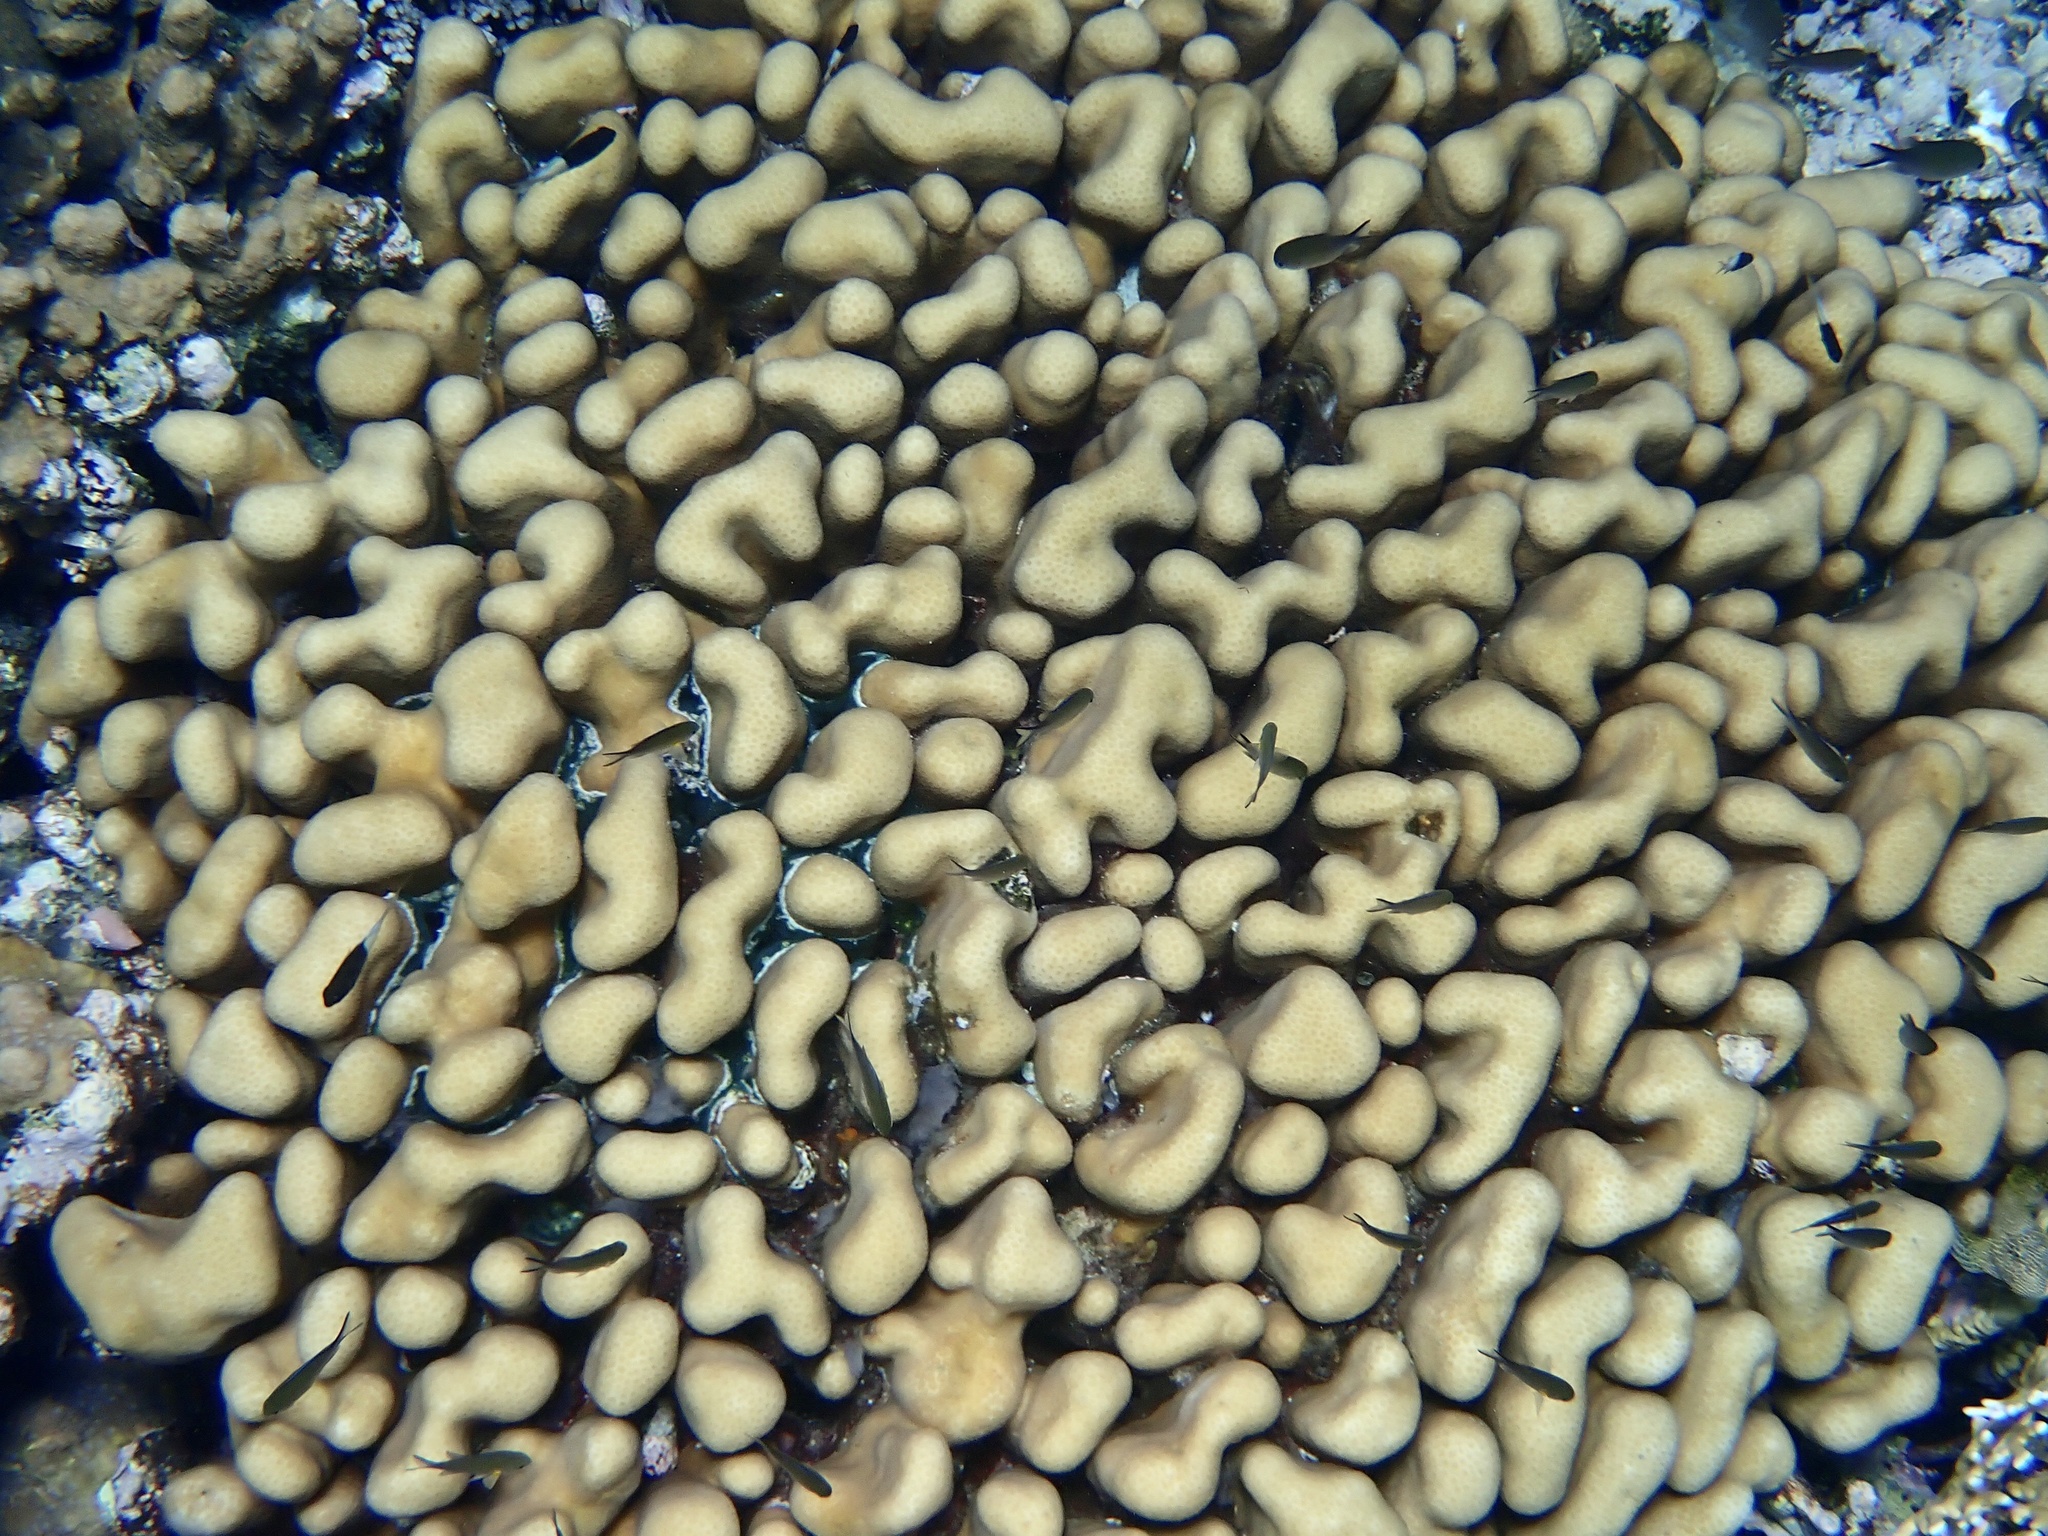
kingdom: Animalia
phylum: Cnidaria
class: Anthozoa
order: Scleractinia
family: Merulinidae
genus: Goniastrea
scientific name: Goniastrea stelligera
